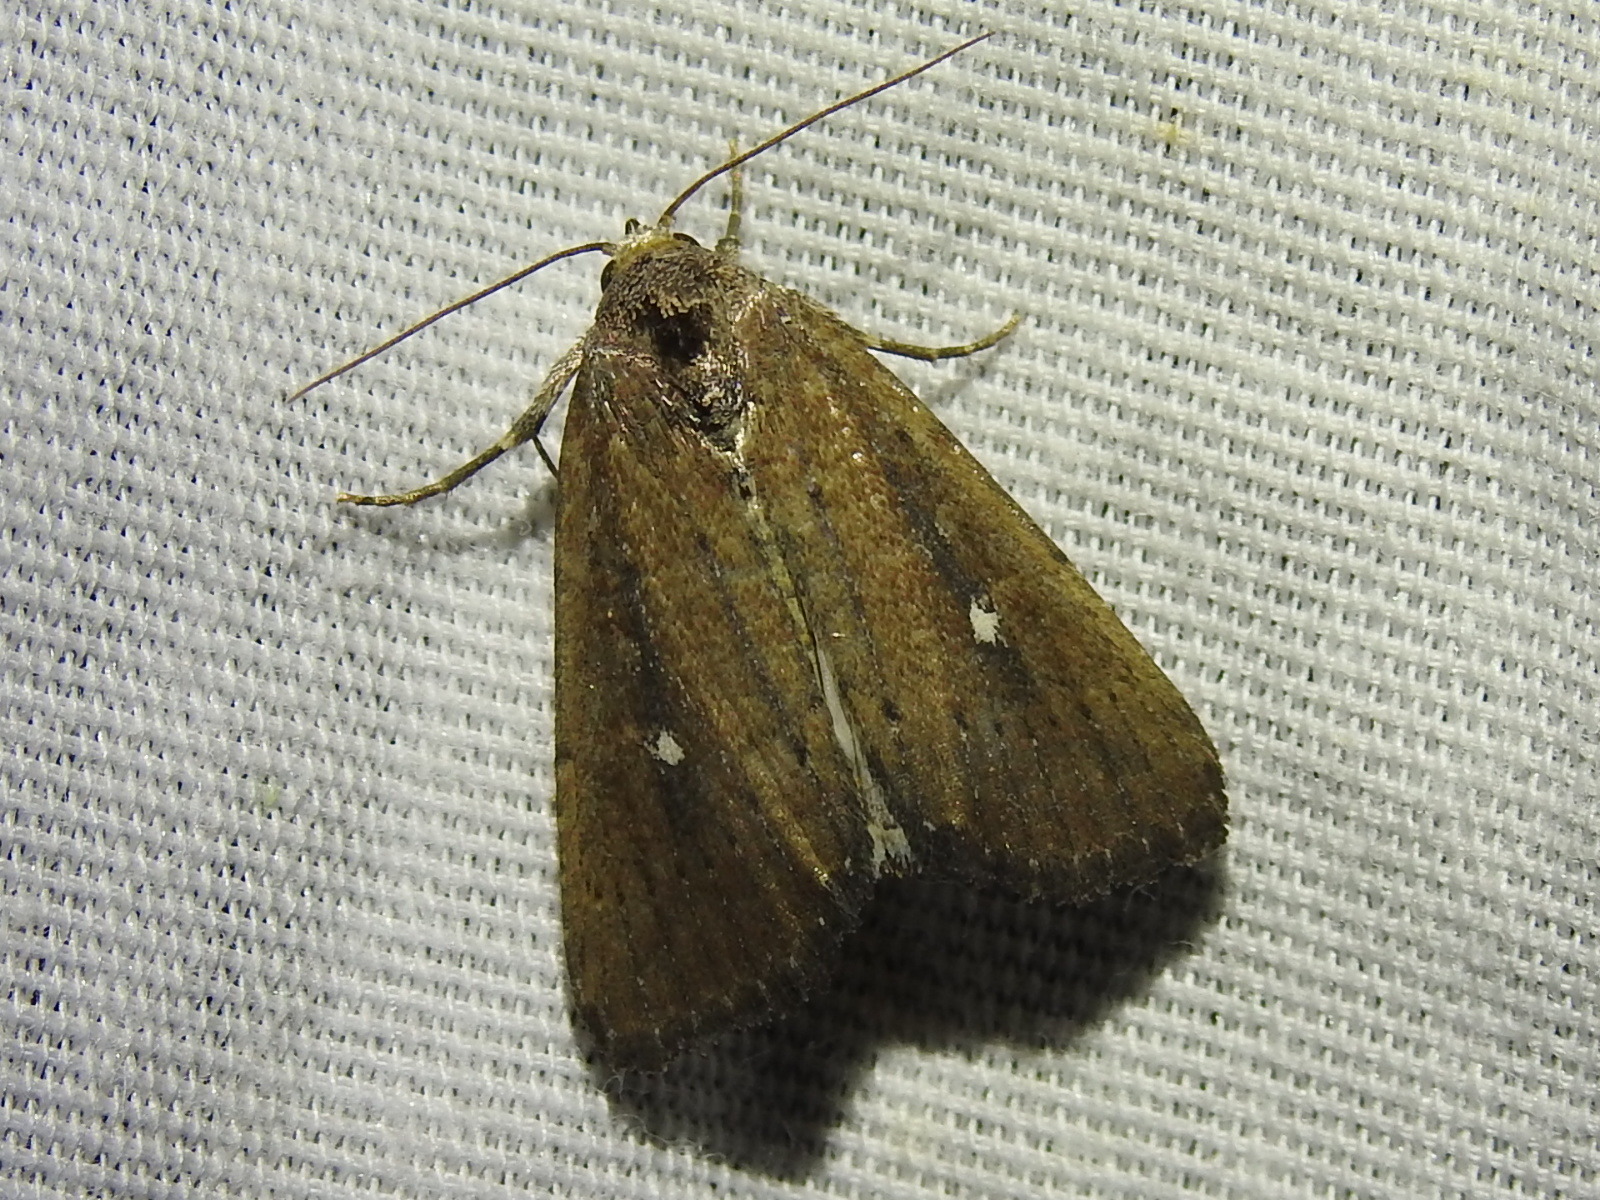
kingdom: Animalia
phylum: Arthropoda
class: Insecta
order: Lepidoptera
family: Noctuidae
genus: Condica
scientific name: Condica videns
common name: White-dotted groundling
